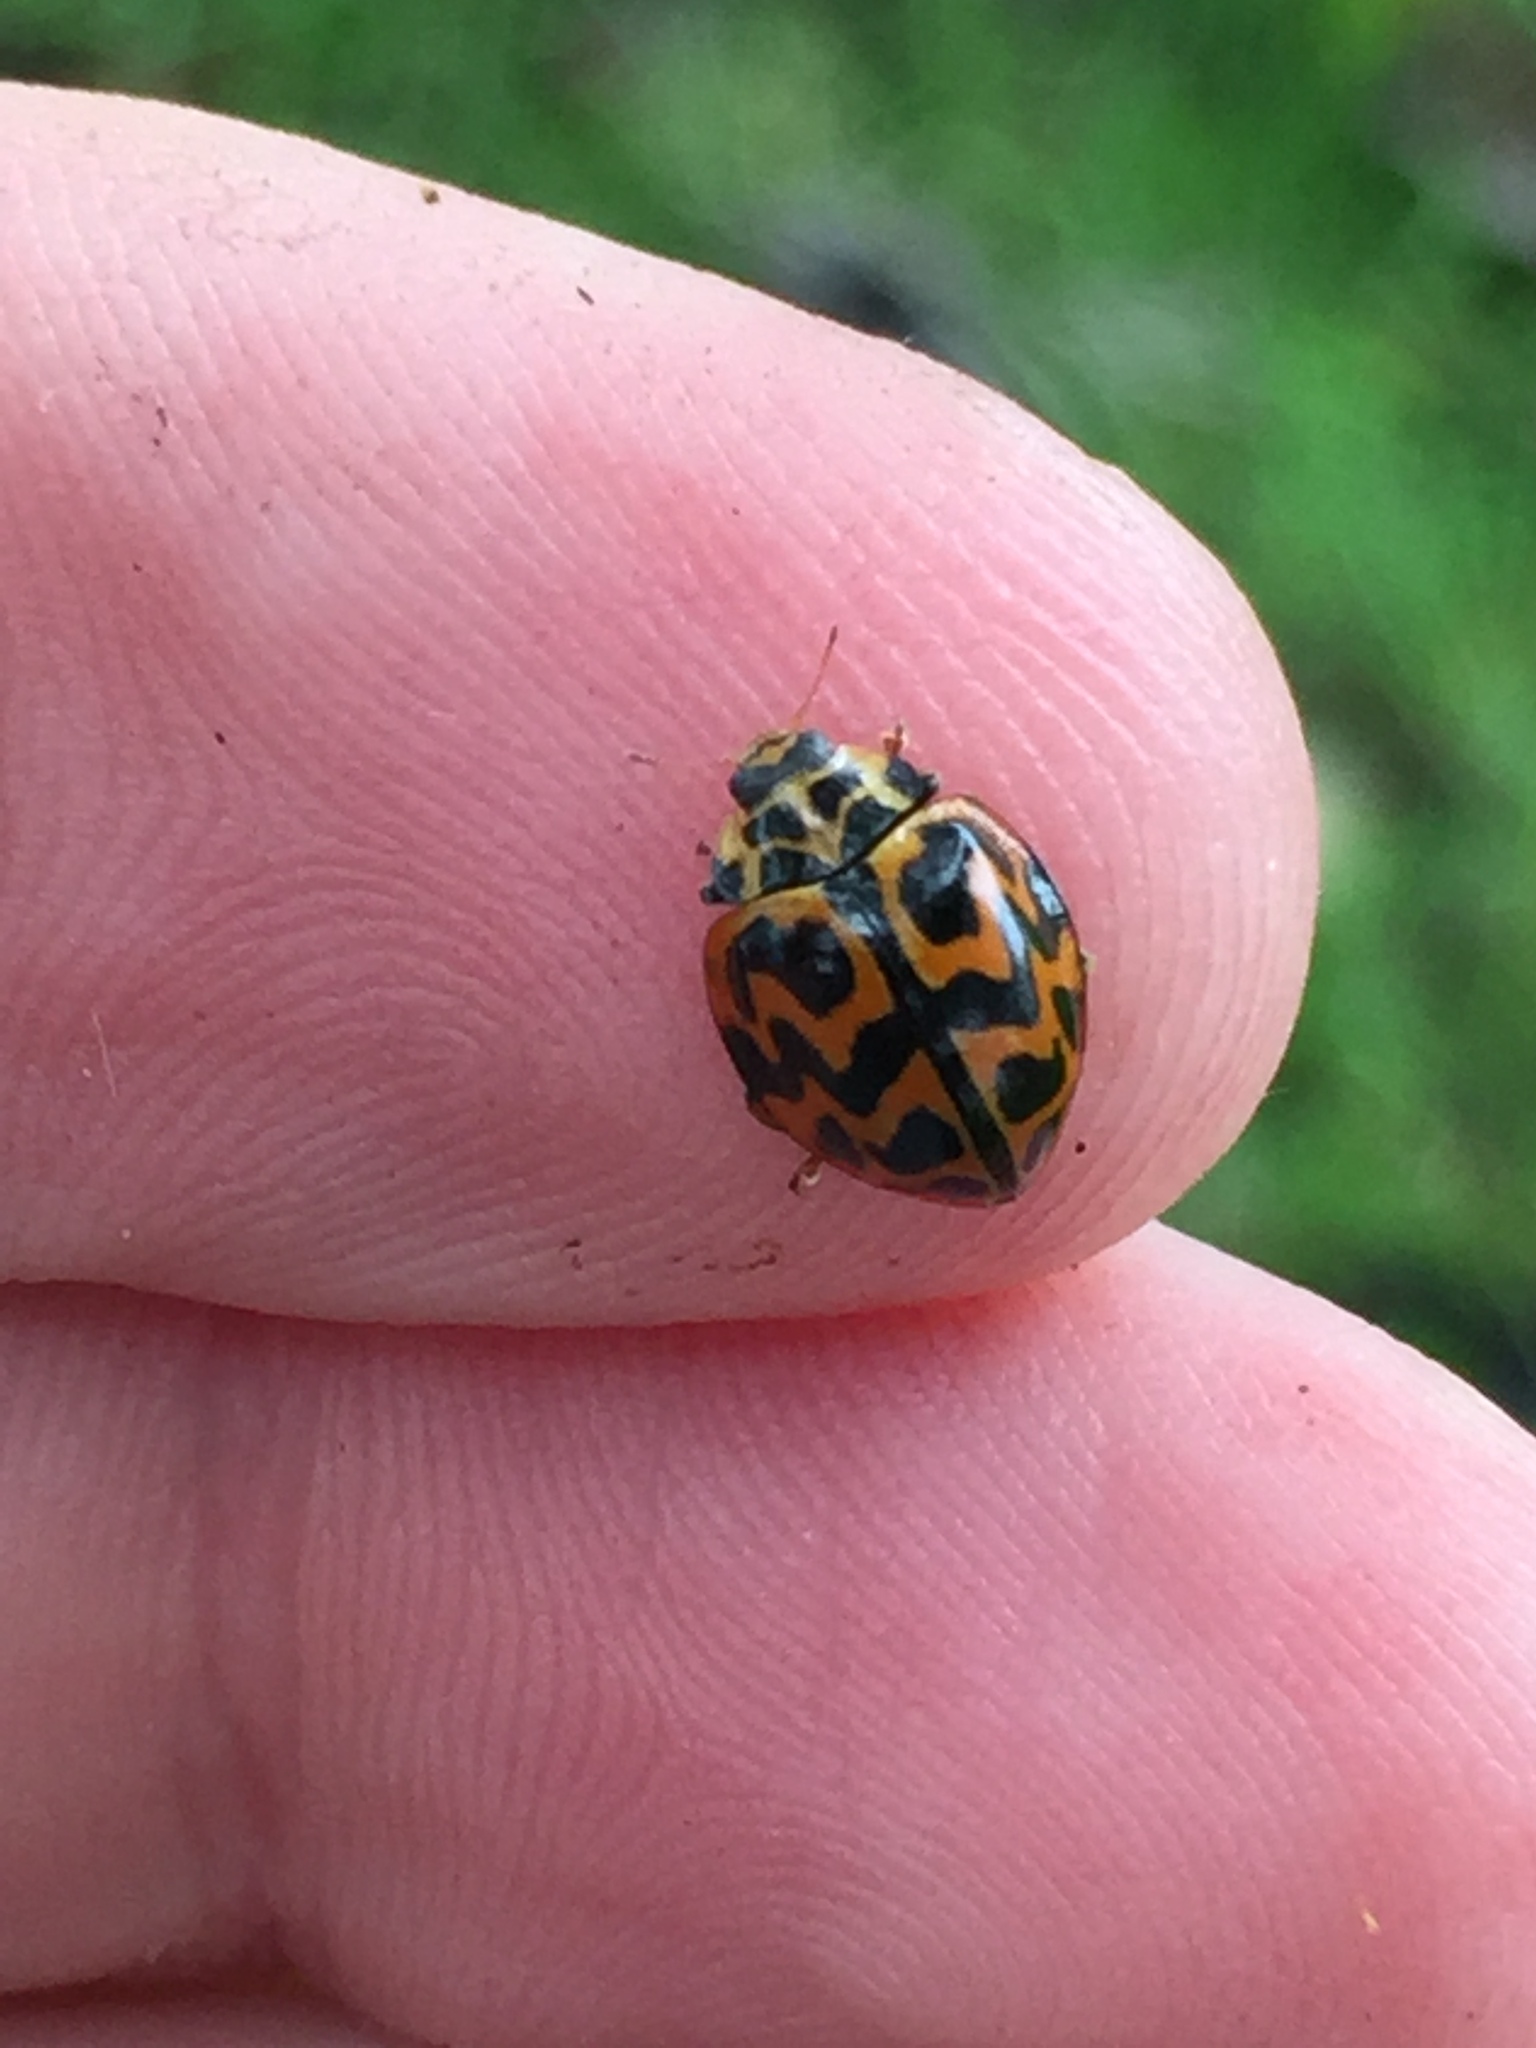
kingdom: Animalia
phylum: Arthropoda
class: Insecta
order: Coleoptera
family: Coccinellidae
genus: Cleobora
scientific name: Cleobora
